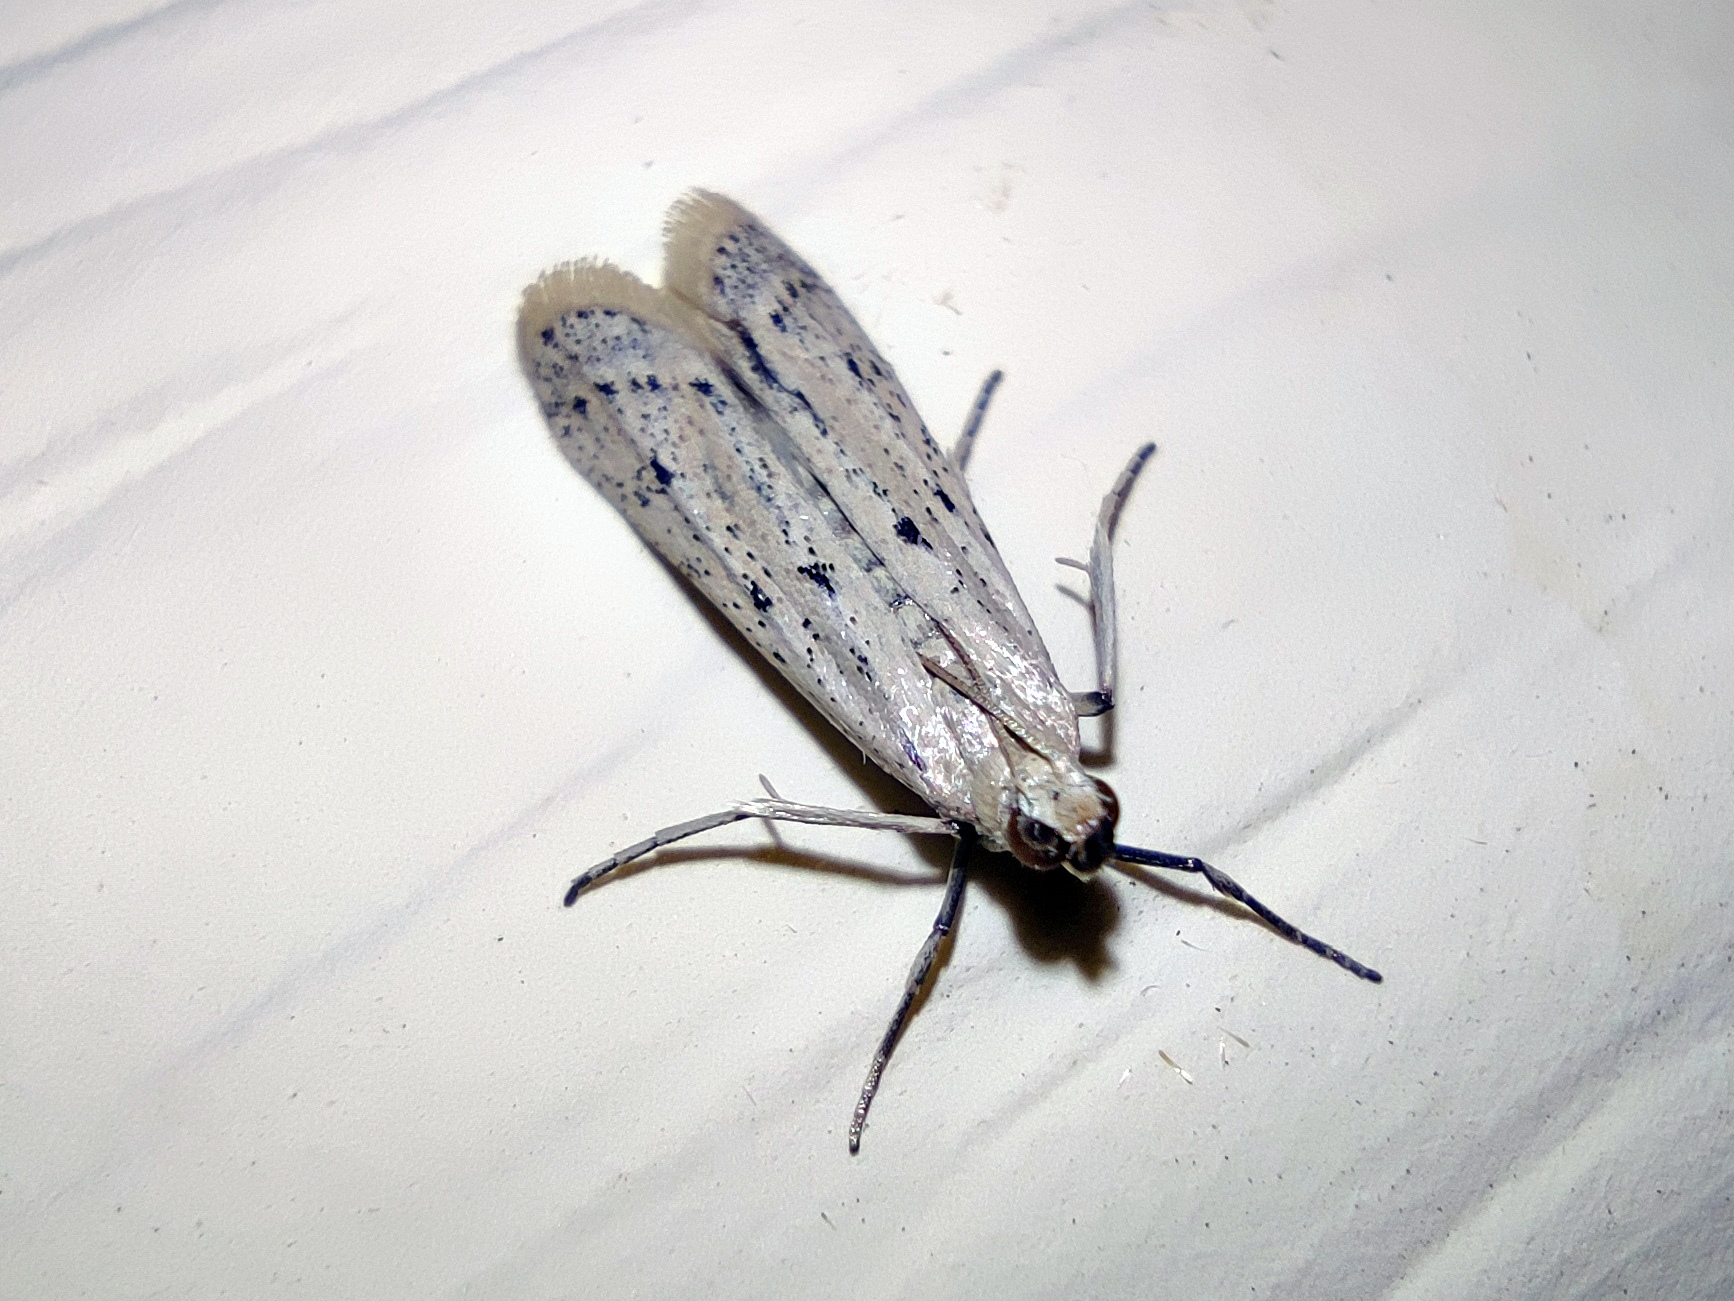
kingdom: Animalia
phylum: Arthropoda
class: Insecta
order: Lepidoptera
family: Pyralidae
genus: Phycitodes
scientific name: Phycitodes lacteella
